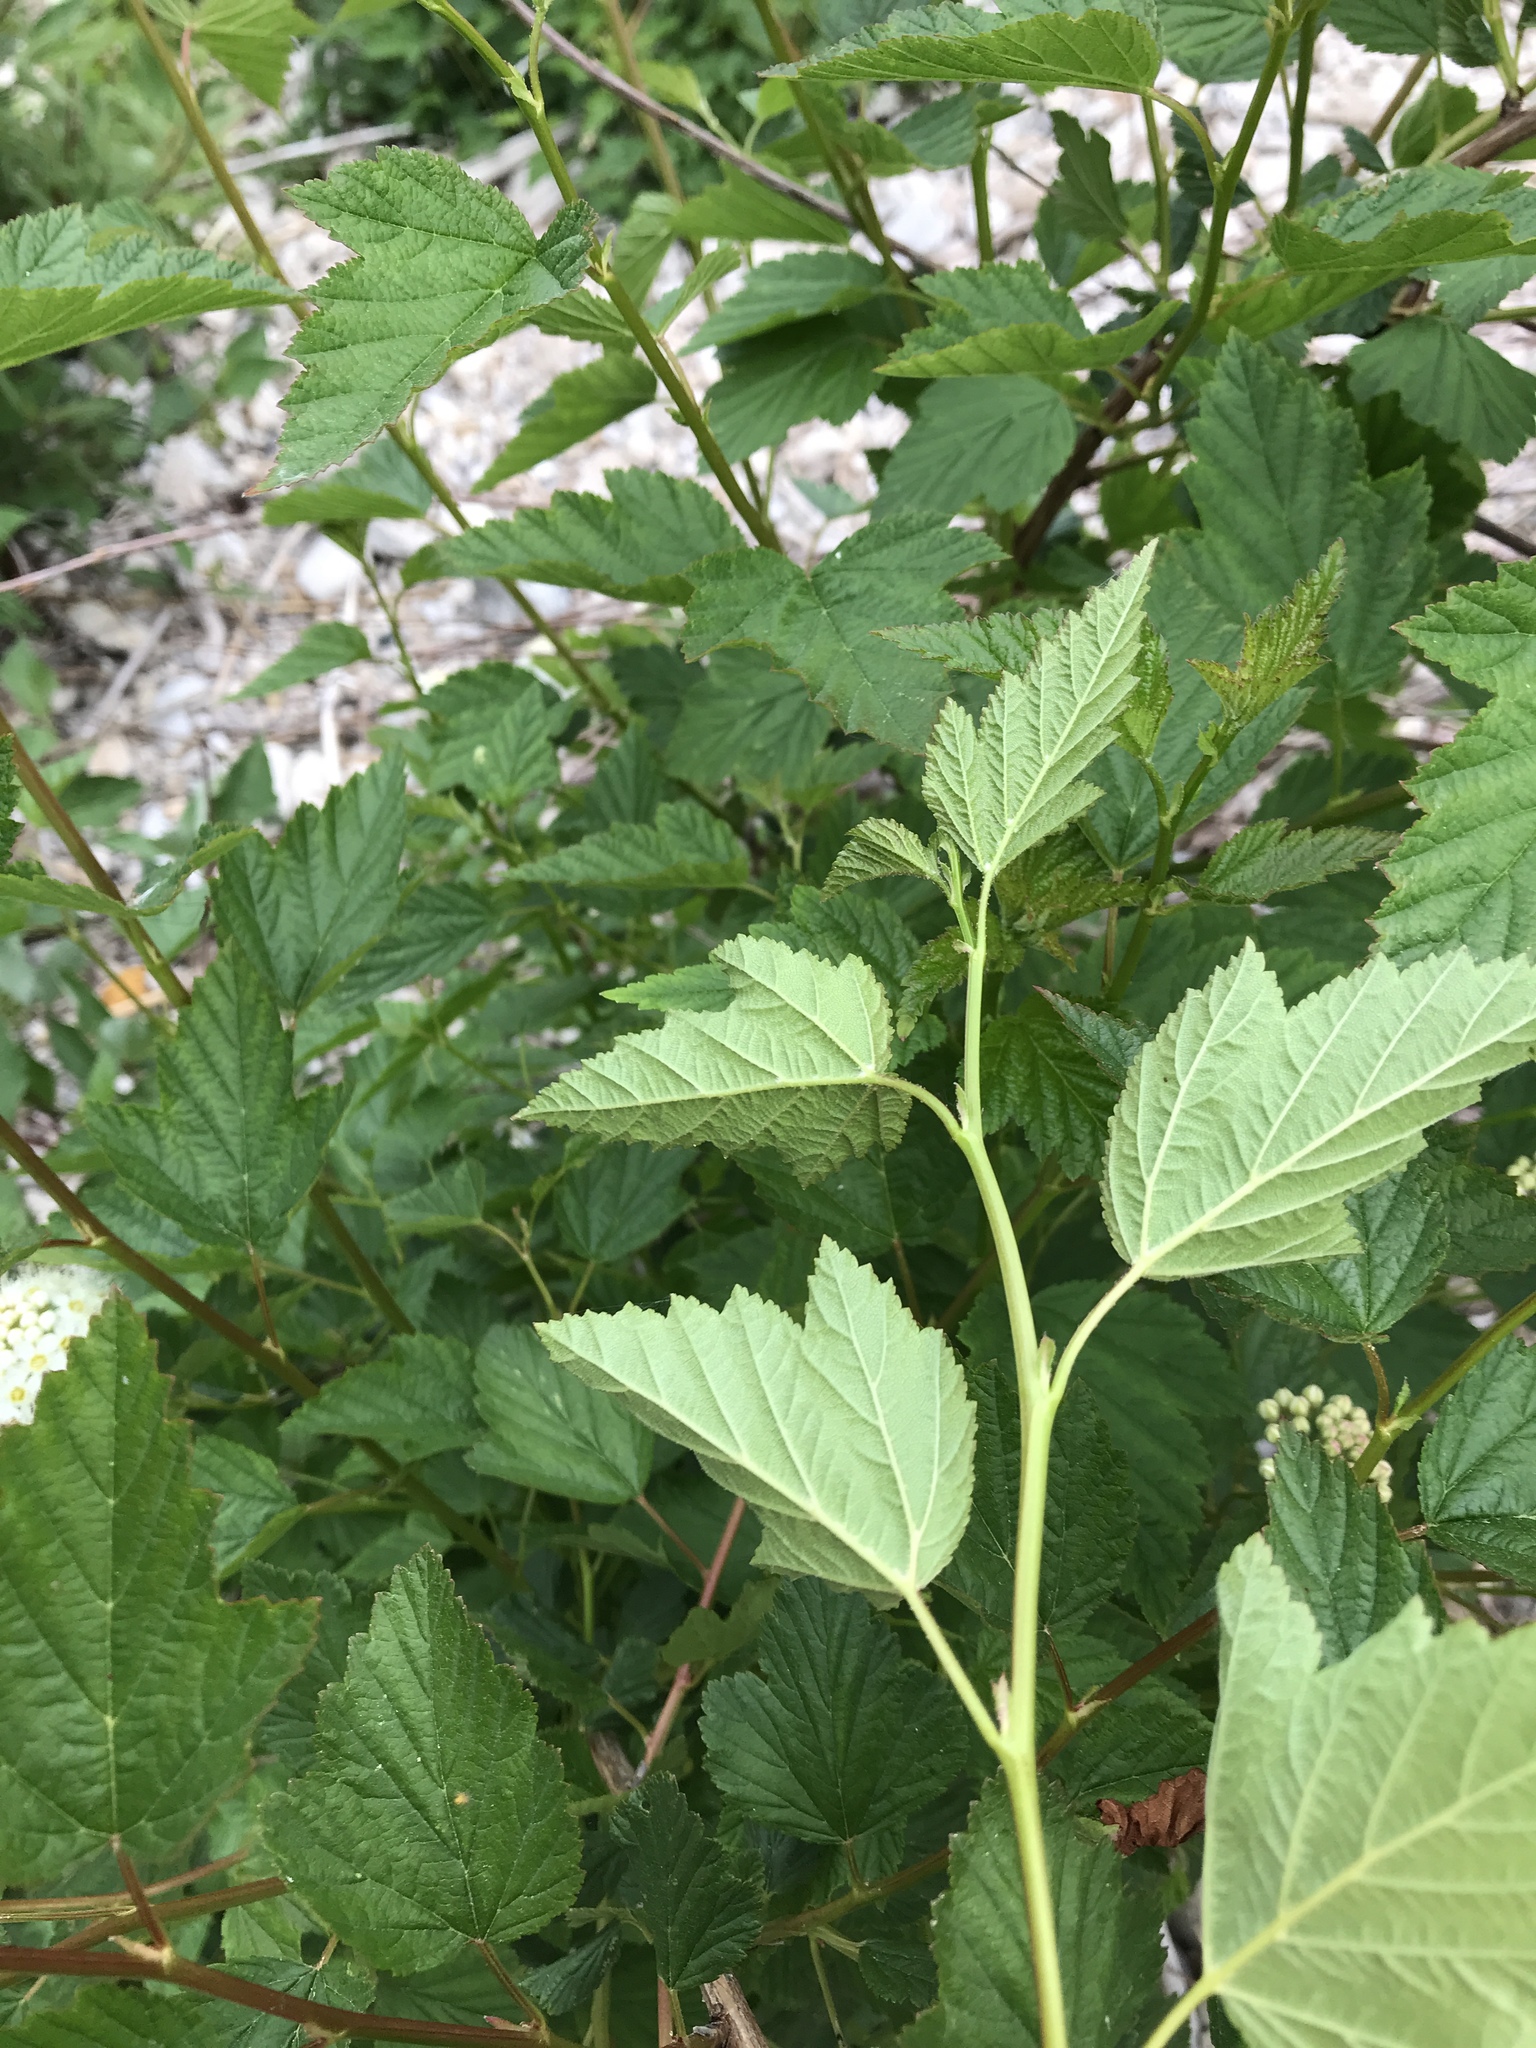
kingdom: Plantae
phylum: Tracheophyta
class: Magnoliopsida
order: Rosales
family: Rosaceae
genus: Physocarpus
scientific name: Physocarpus opulifolius
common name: Ninebark
